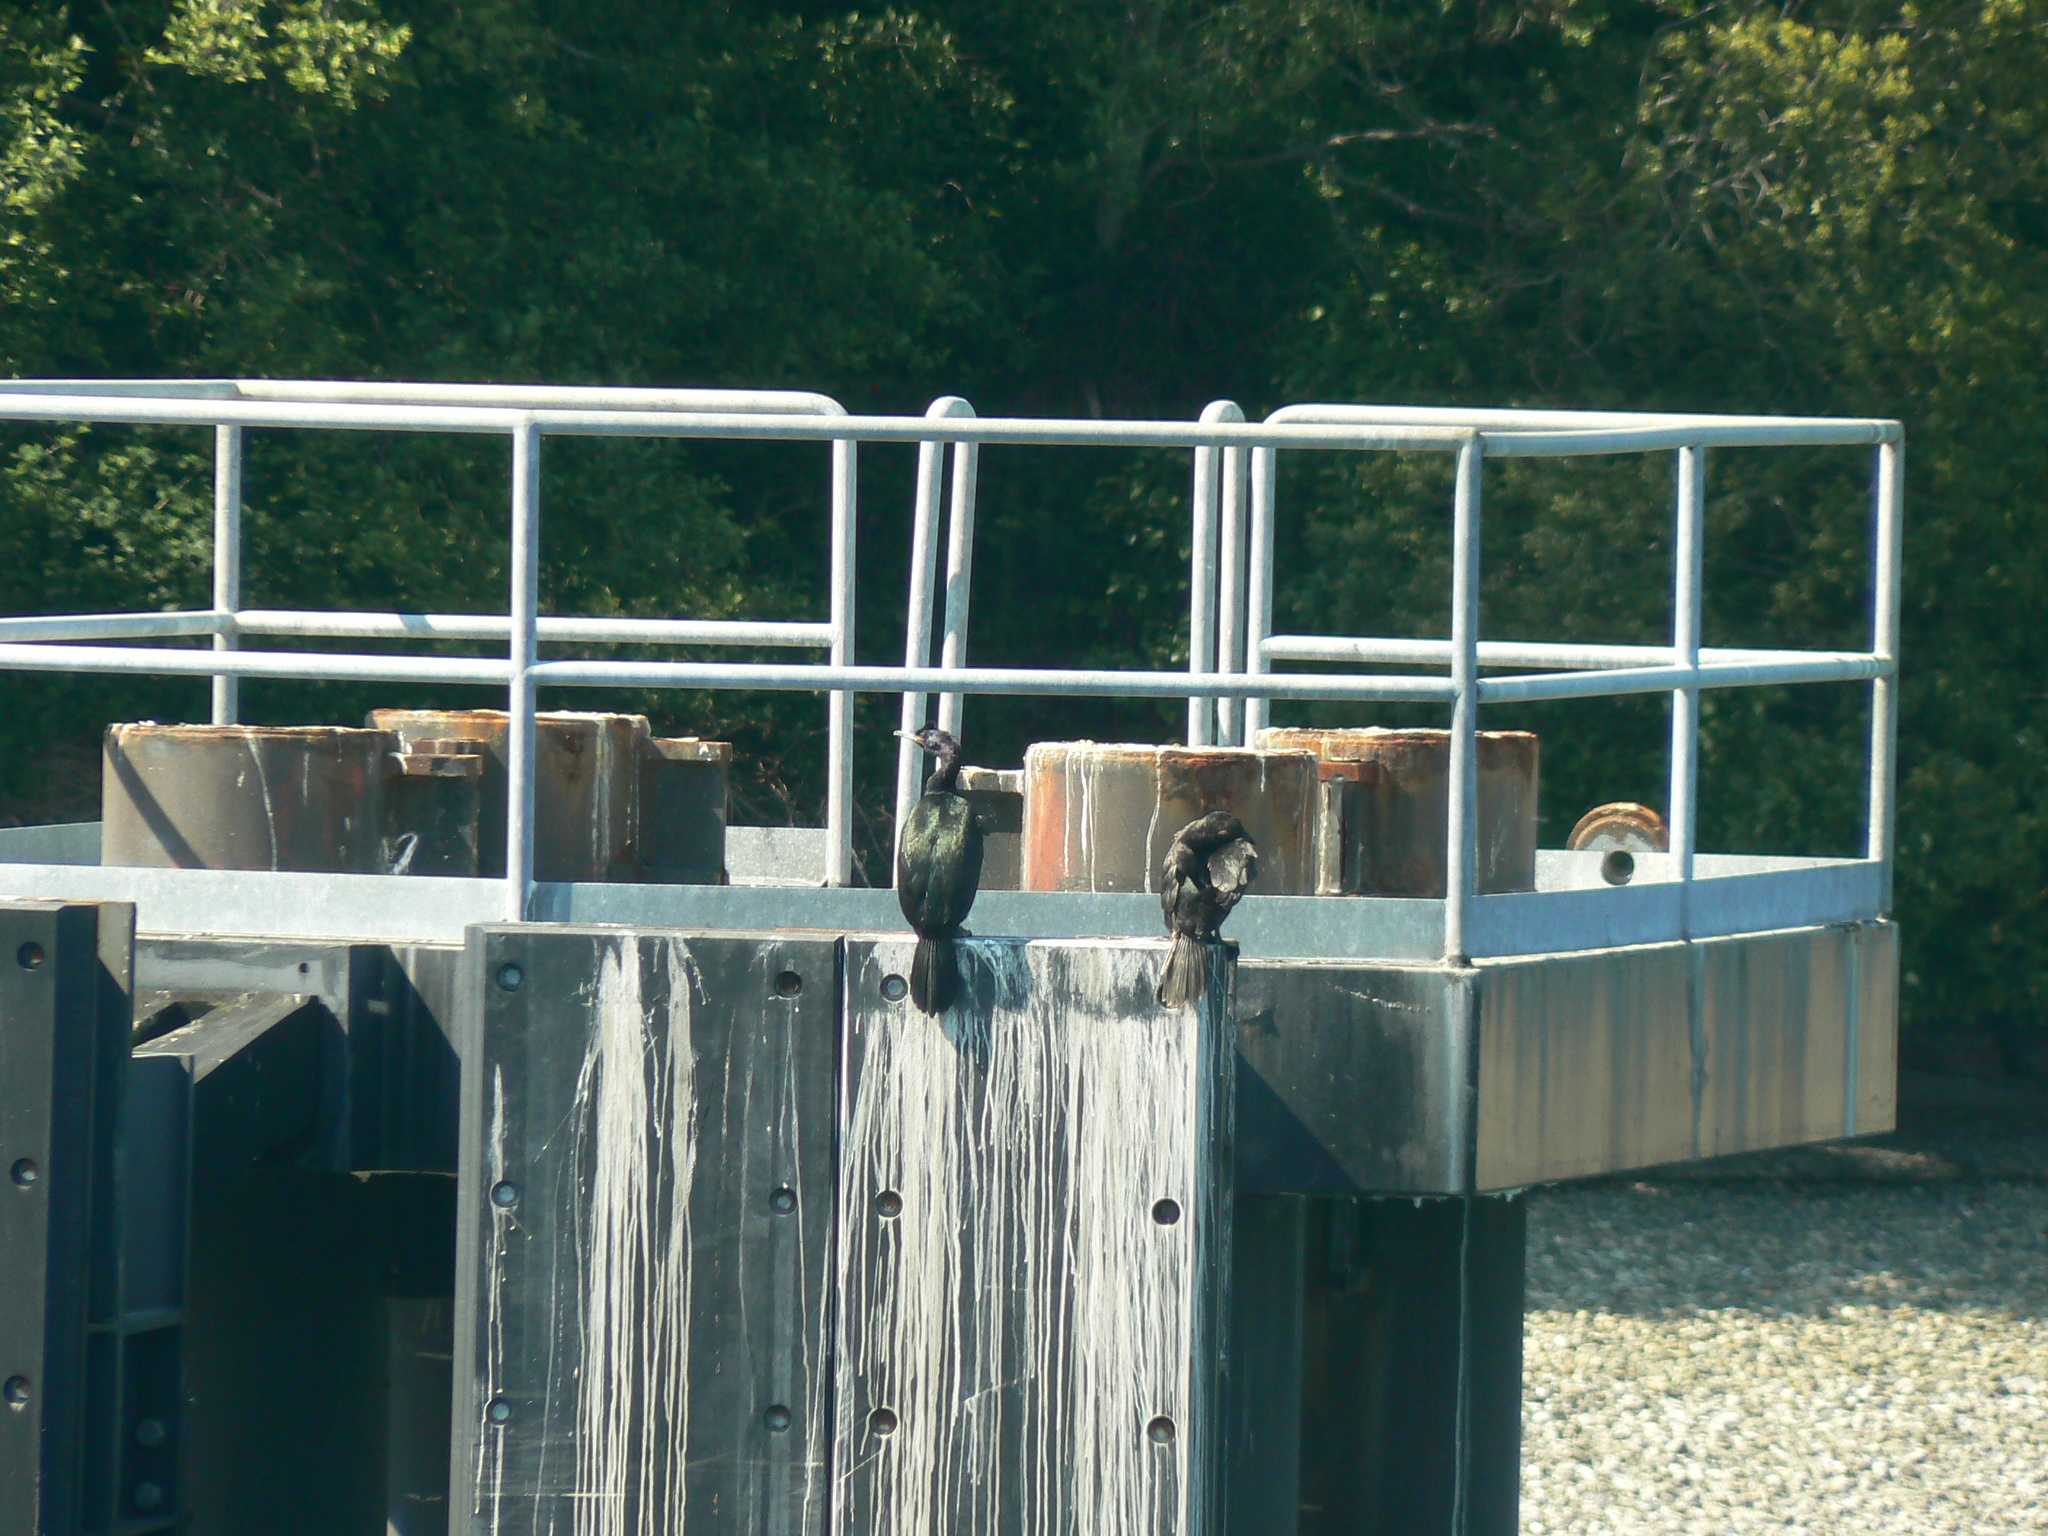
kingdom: Animalia
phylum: Chordata
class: Aves
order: Suliformes
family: Phalacrocoracidae
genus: Phalacrocorax
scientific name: Phalacrocorax pelagicus
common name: Pelagic cormorant
